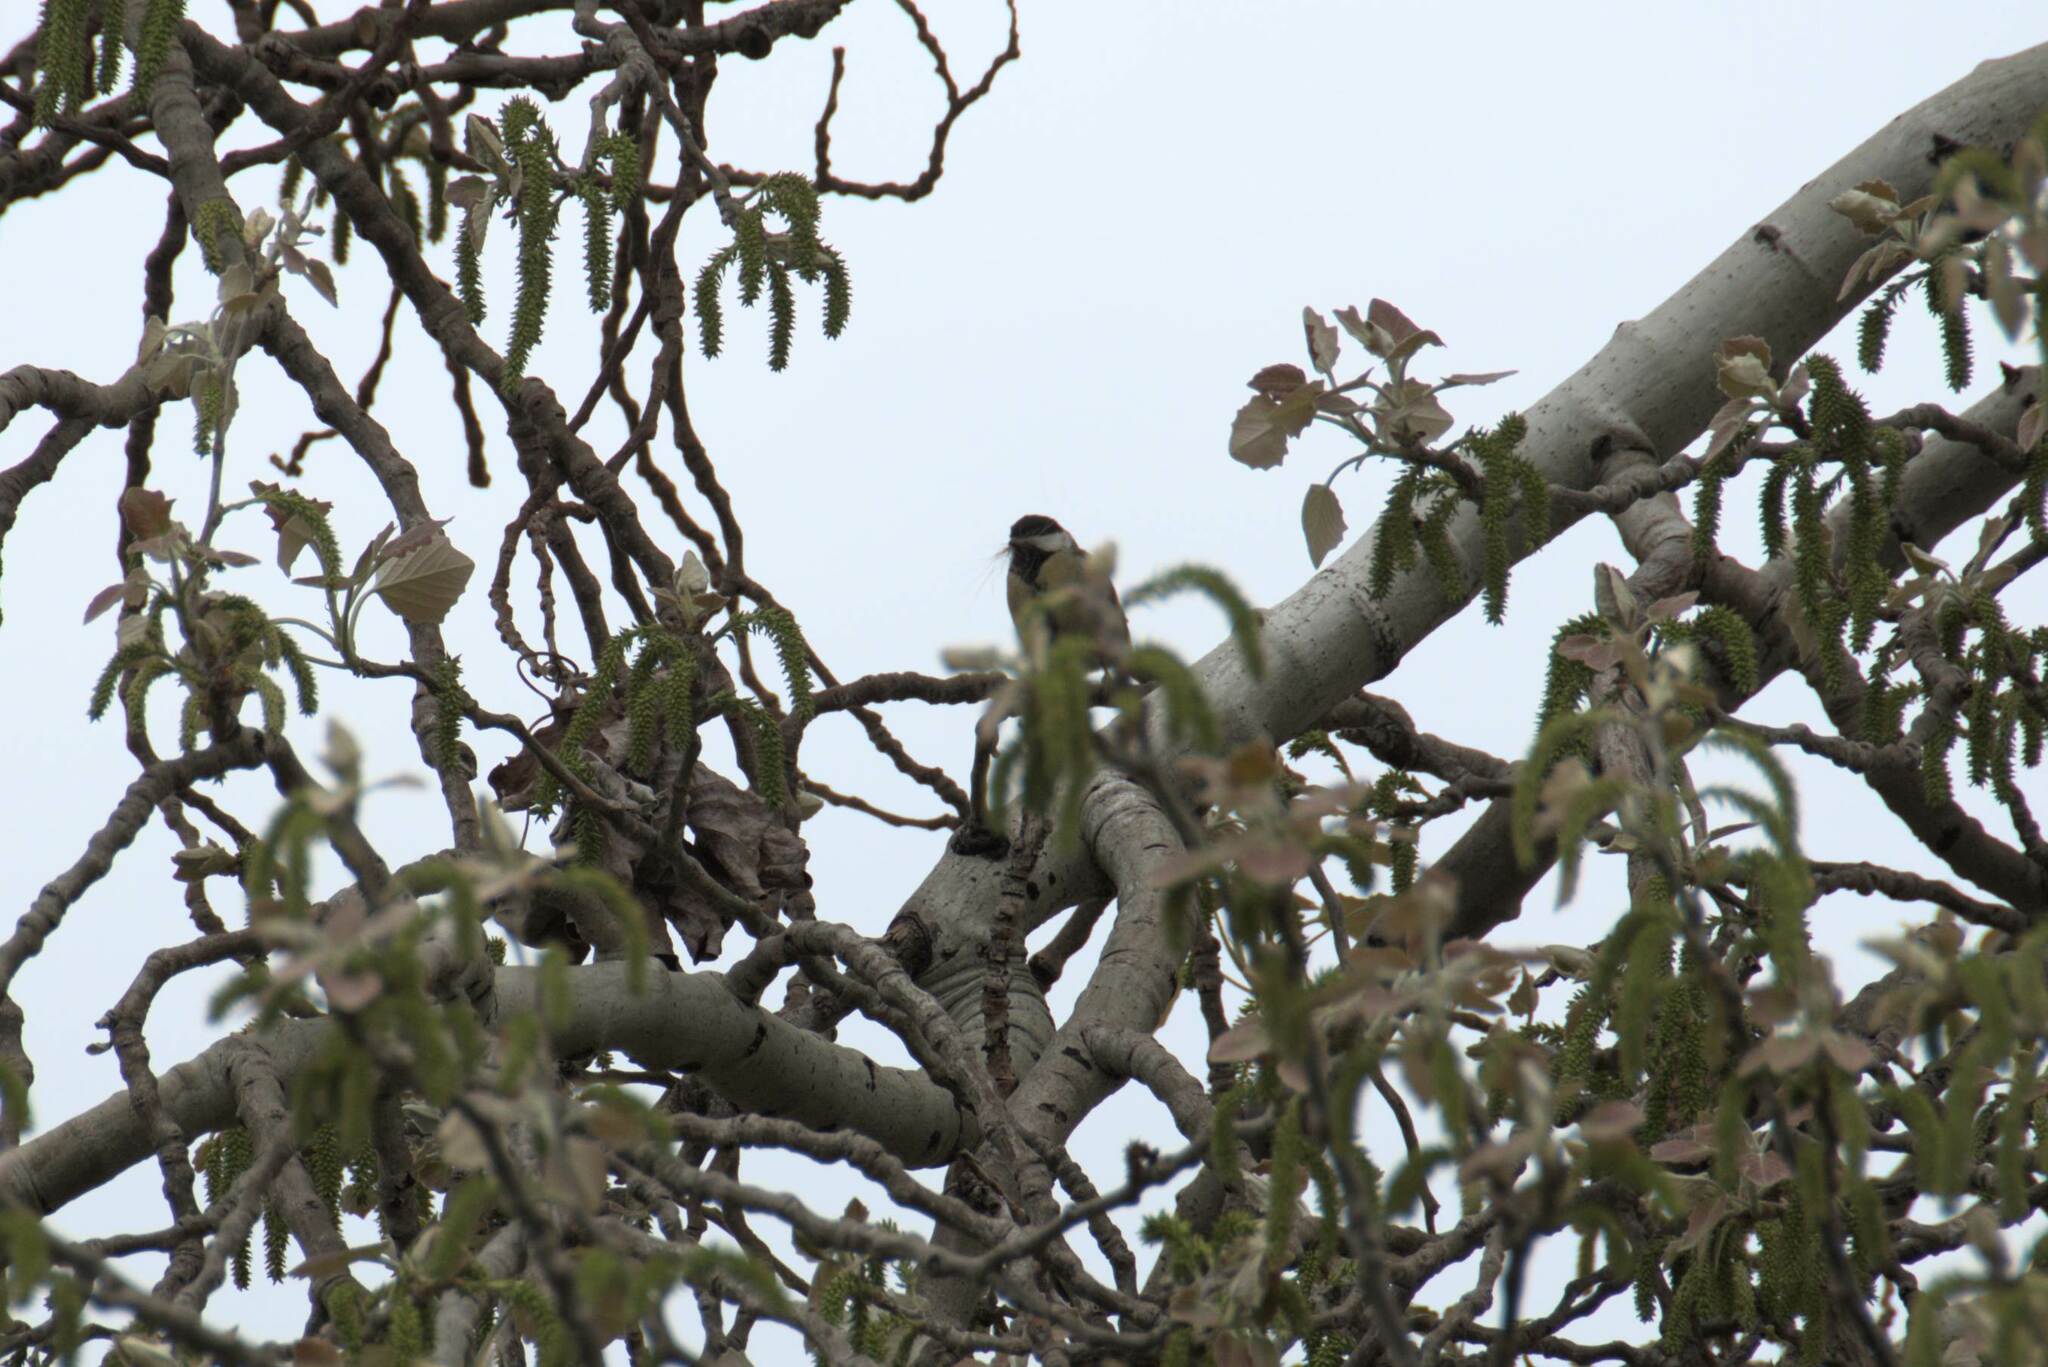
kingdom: Animalia
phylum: Chordata
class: Aves
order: Passeriformes
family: Paridae
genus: Parus
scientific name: Parus major
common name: Great tit
